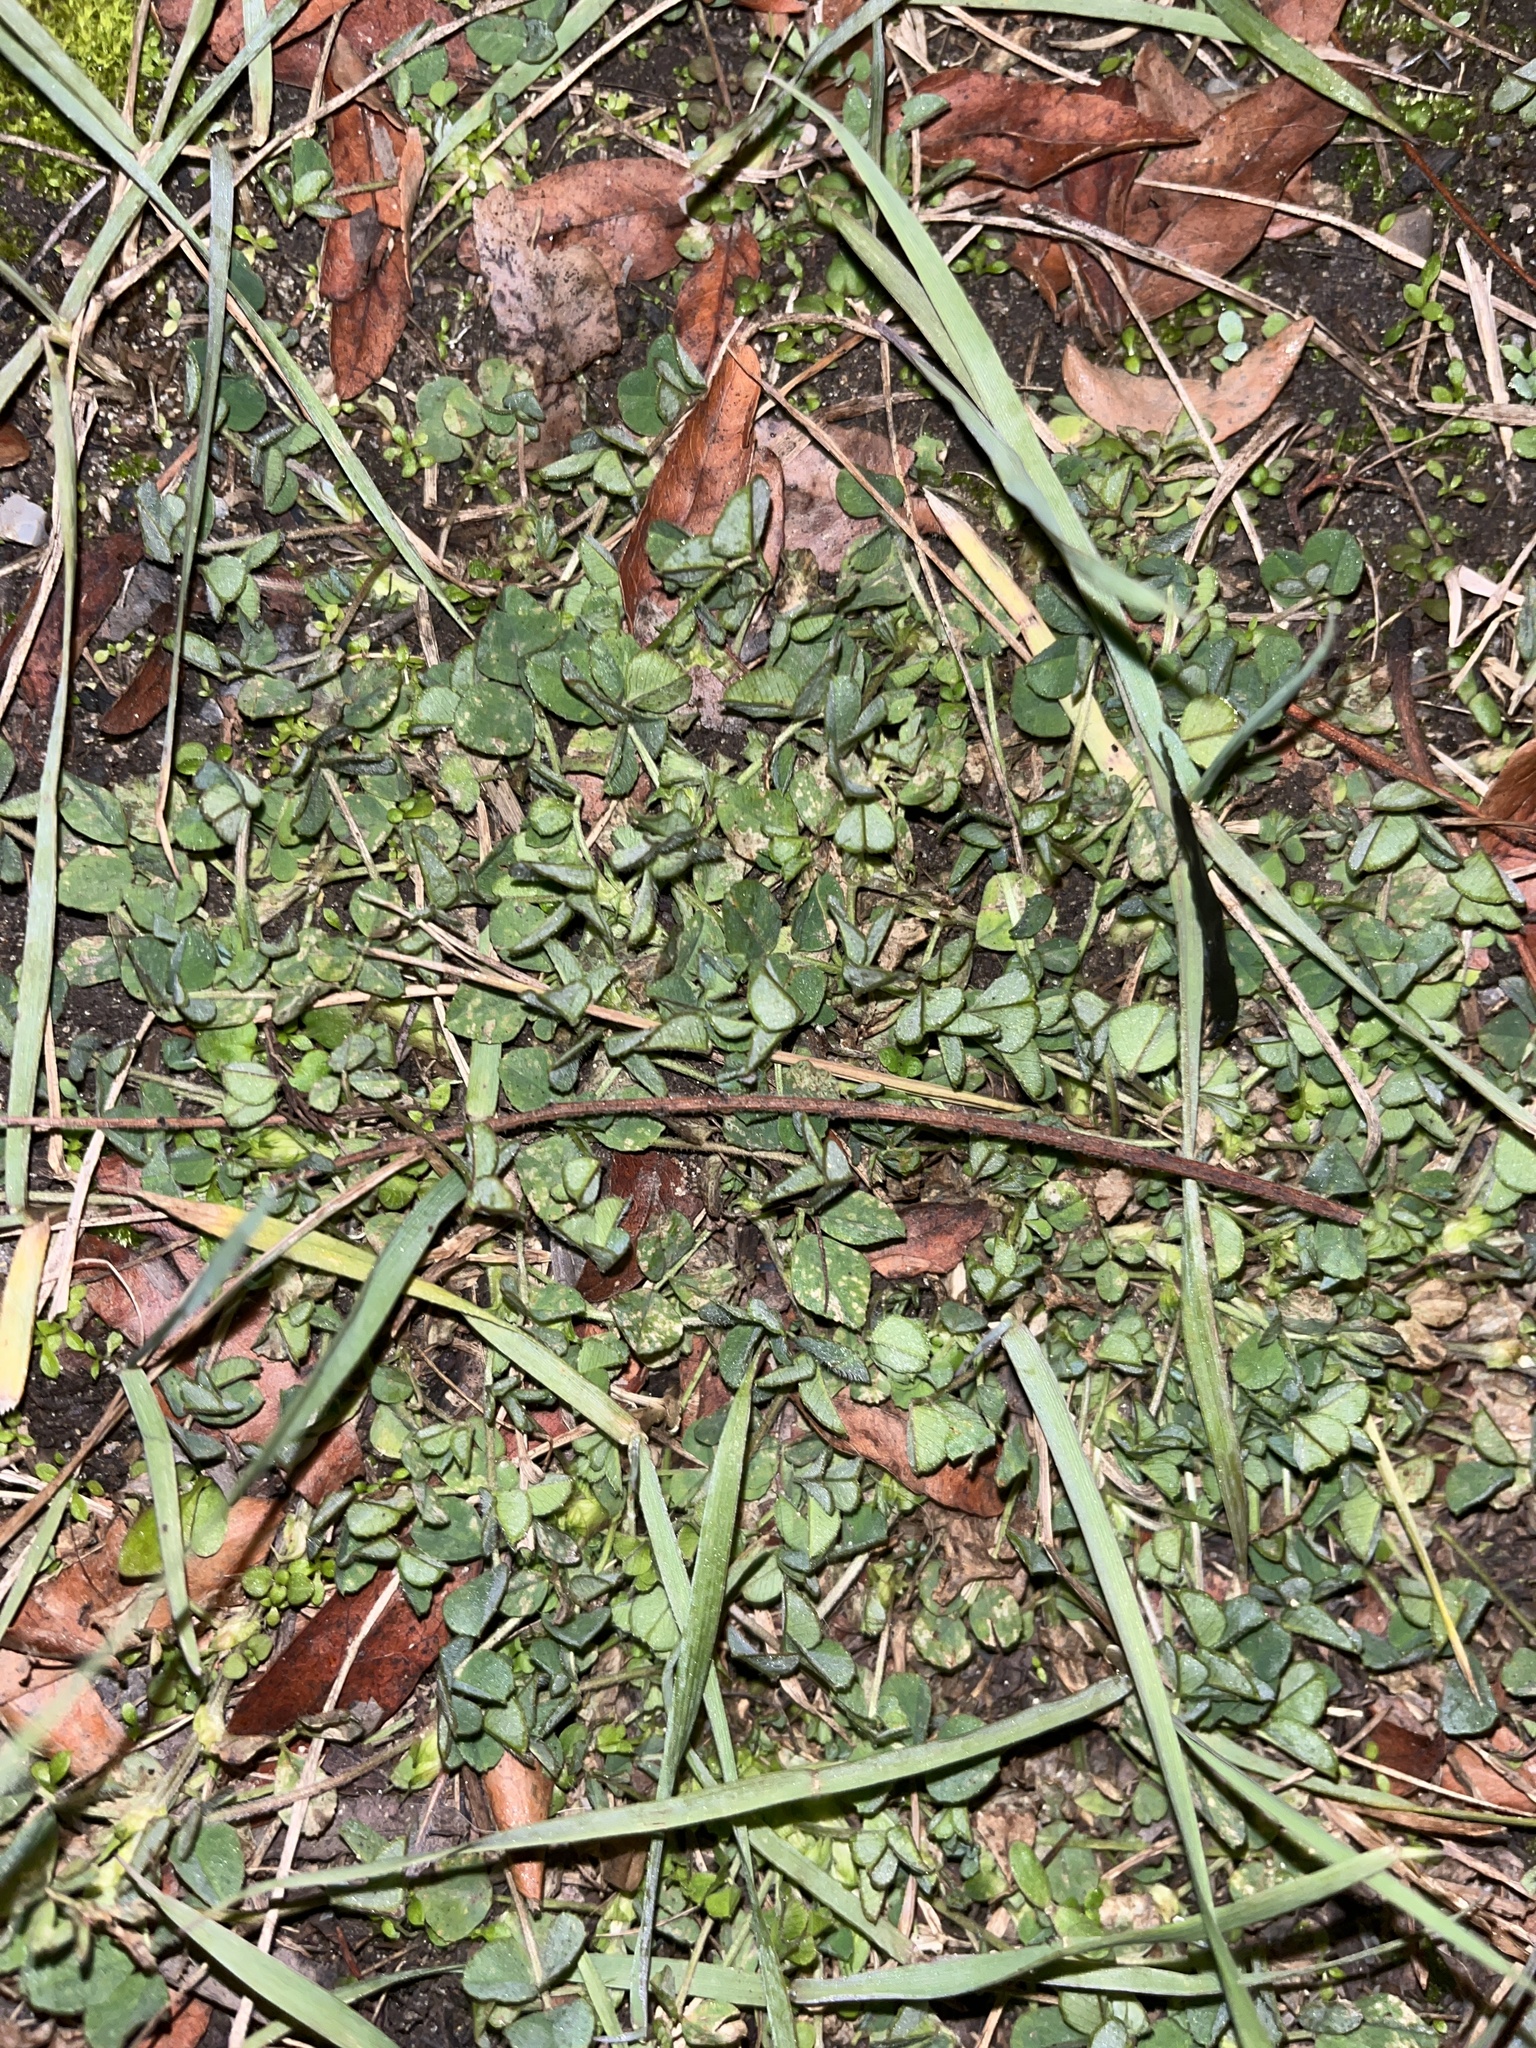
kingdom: Plantae
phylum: Tracheophyta
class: Magnoliopsida
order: Fabales
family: Fabaceae
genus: Trifolium
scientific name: Trifolium repens
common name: White clover
